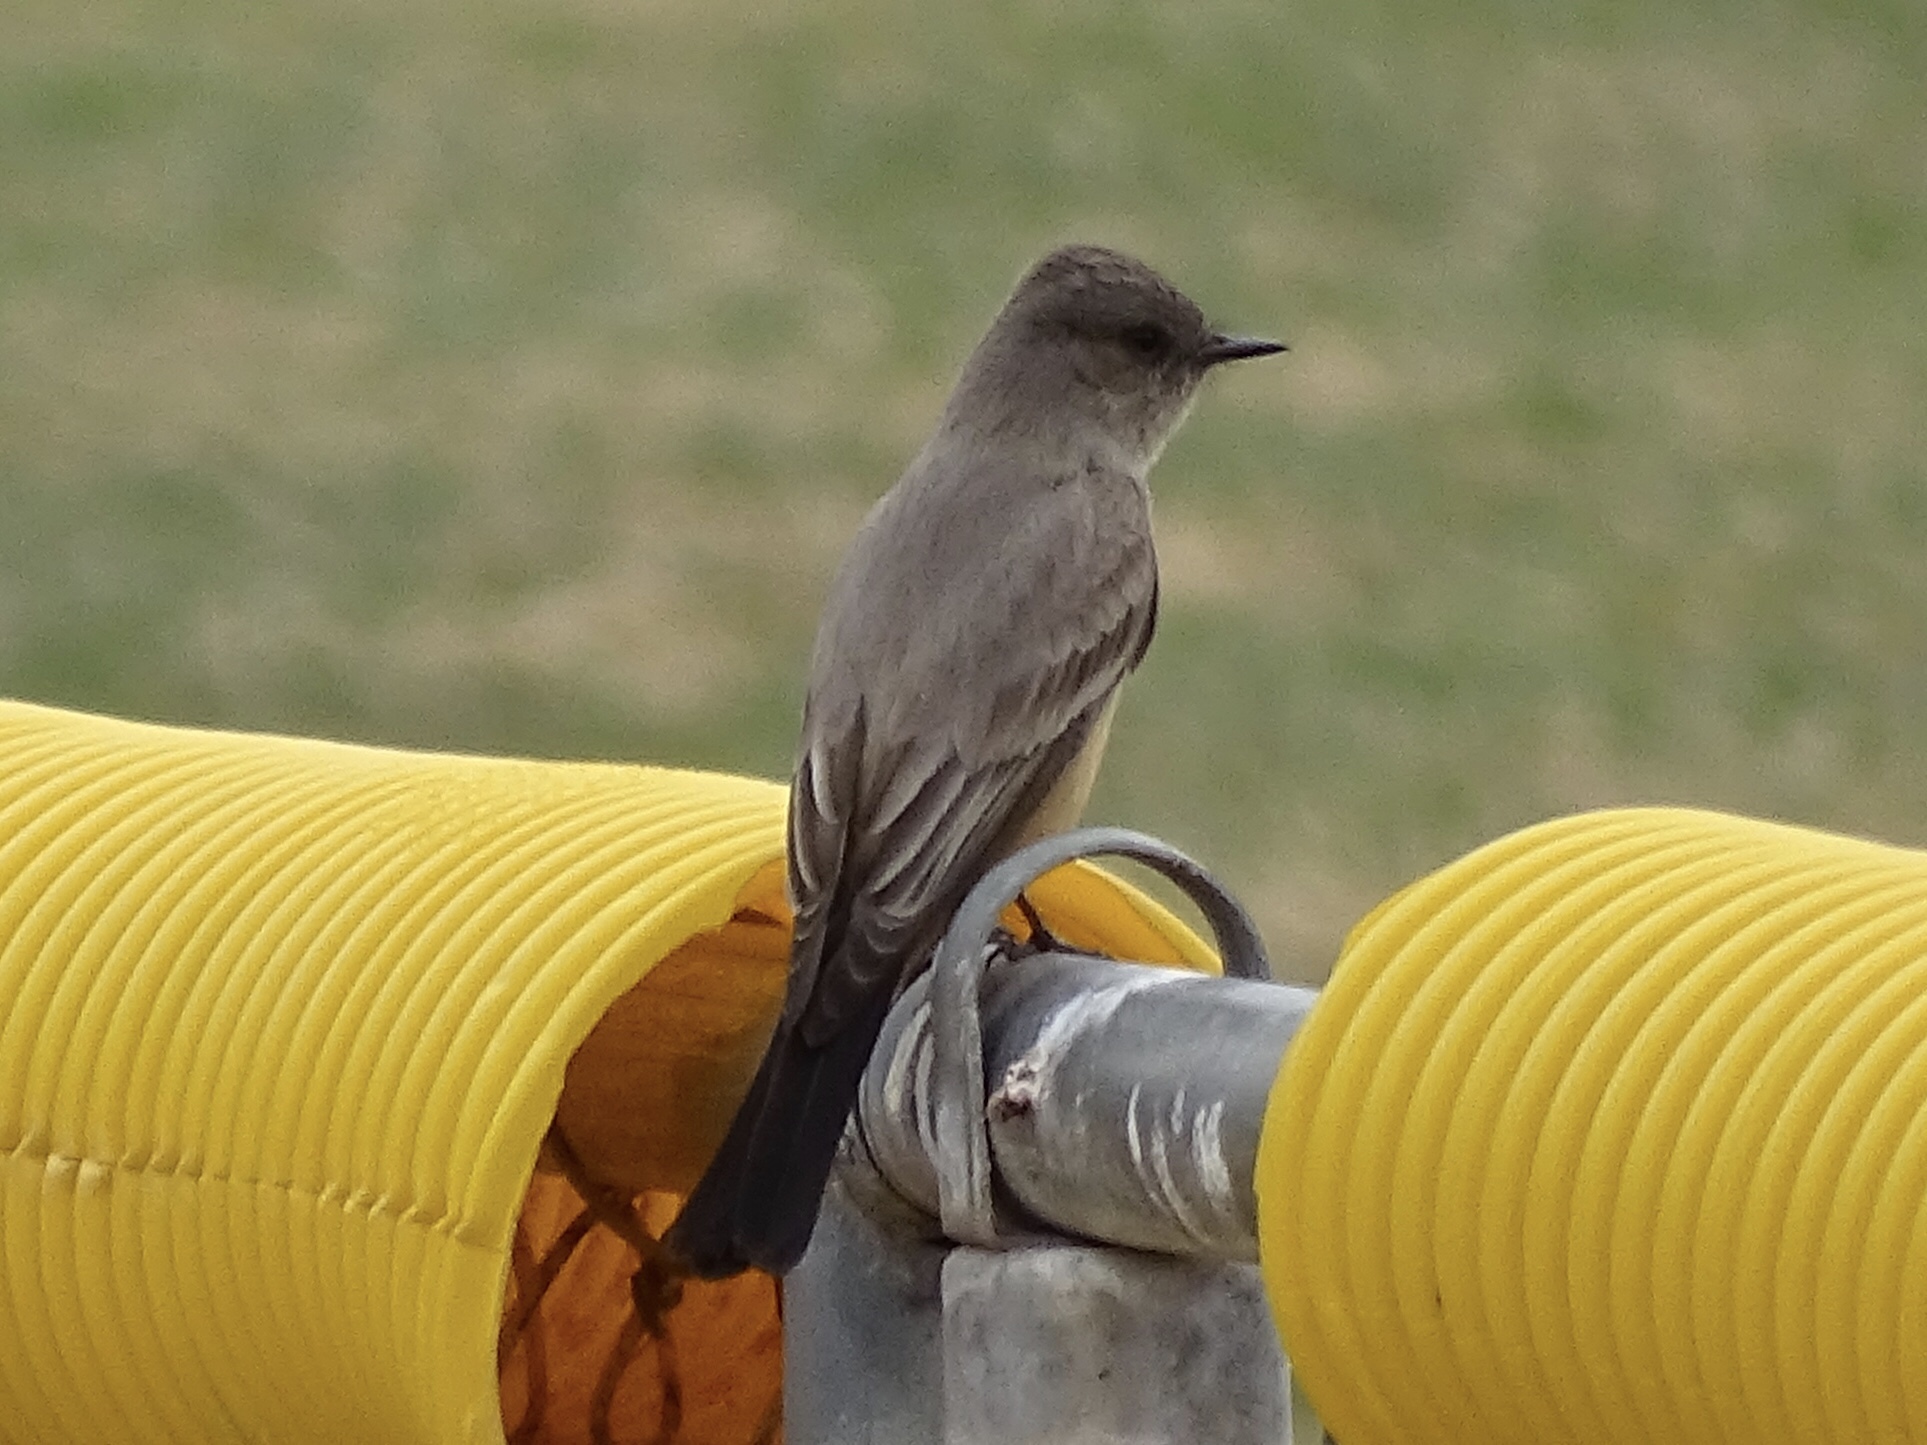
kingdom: Animalia
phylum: Chordata
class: Aves
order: Passeriformes
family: Tyrannidae
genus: Sayornis
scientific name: Sayornis saya
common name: Say's phoebe
